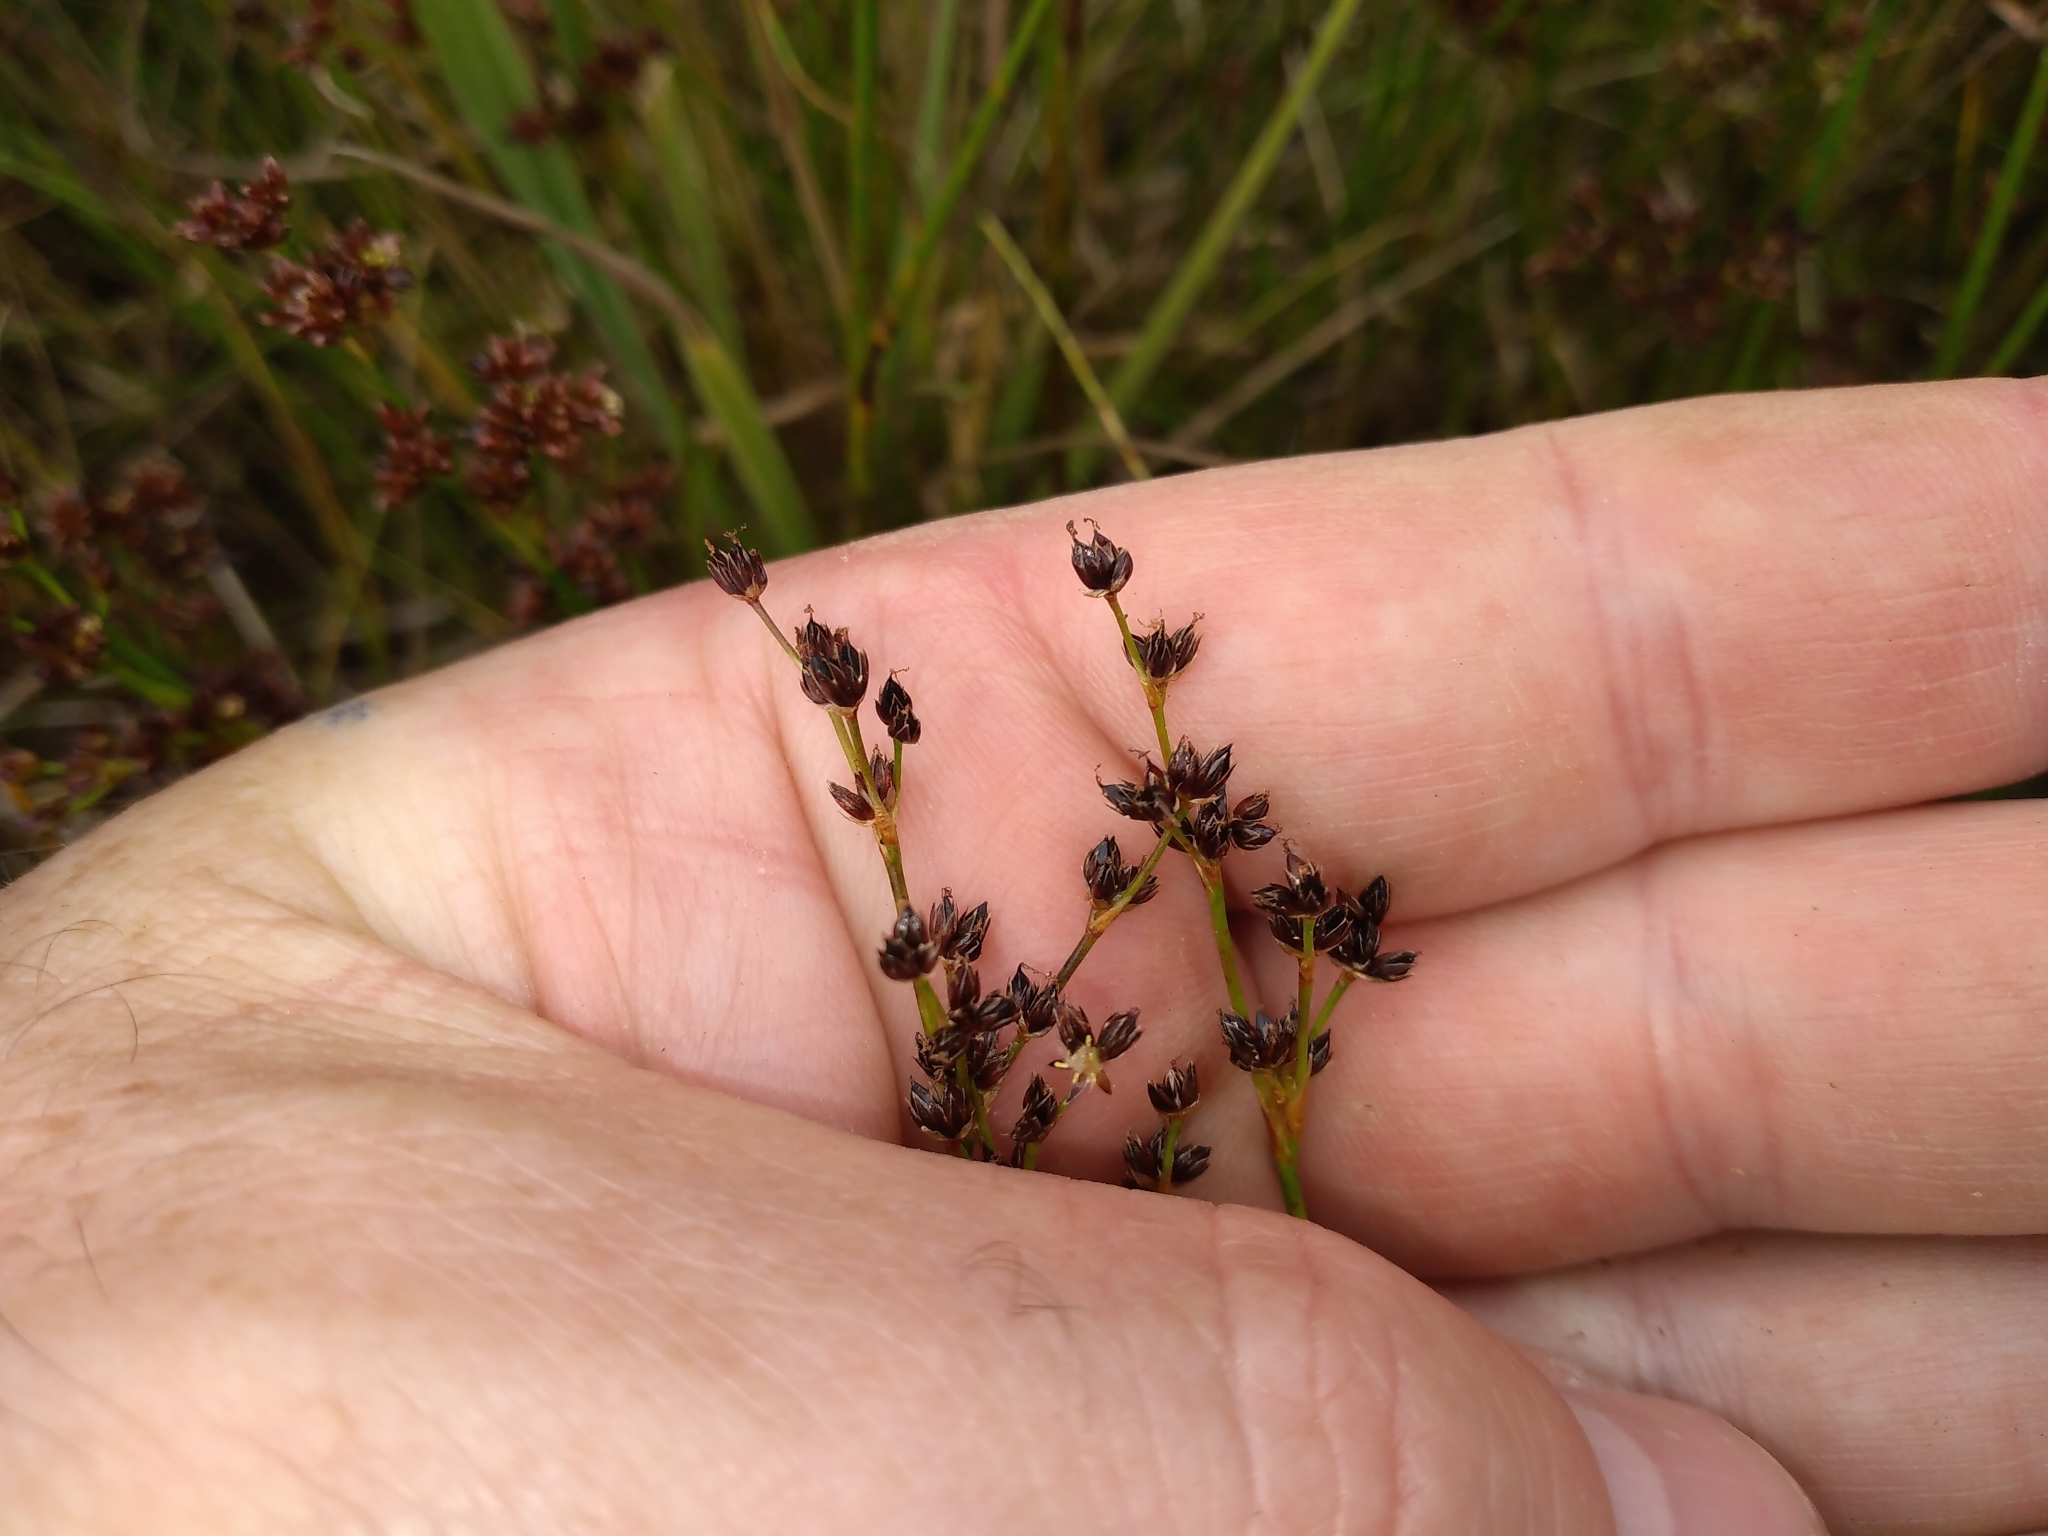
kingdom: Plantae
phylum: Tracheophyta
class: Liliopsida
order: Poales
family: Juncaceae
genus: Juncus
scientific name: Juncus articulatus
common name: Jointed rush
